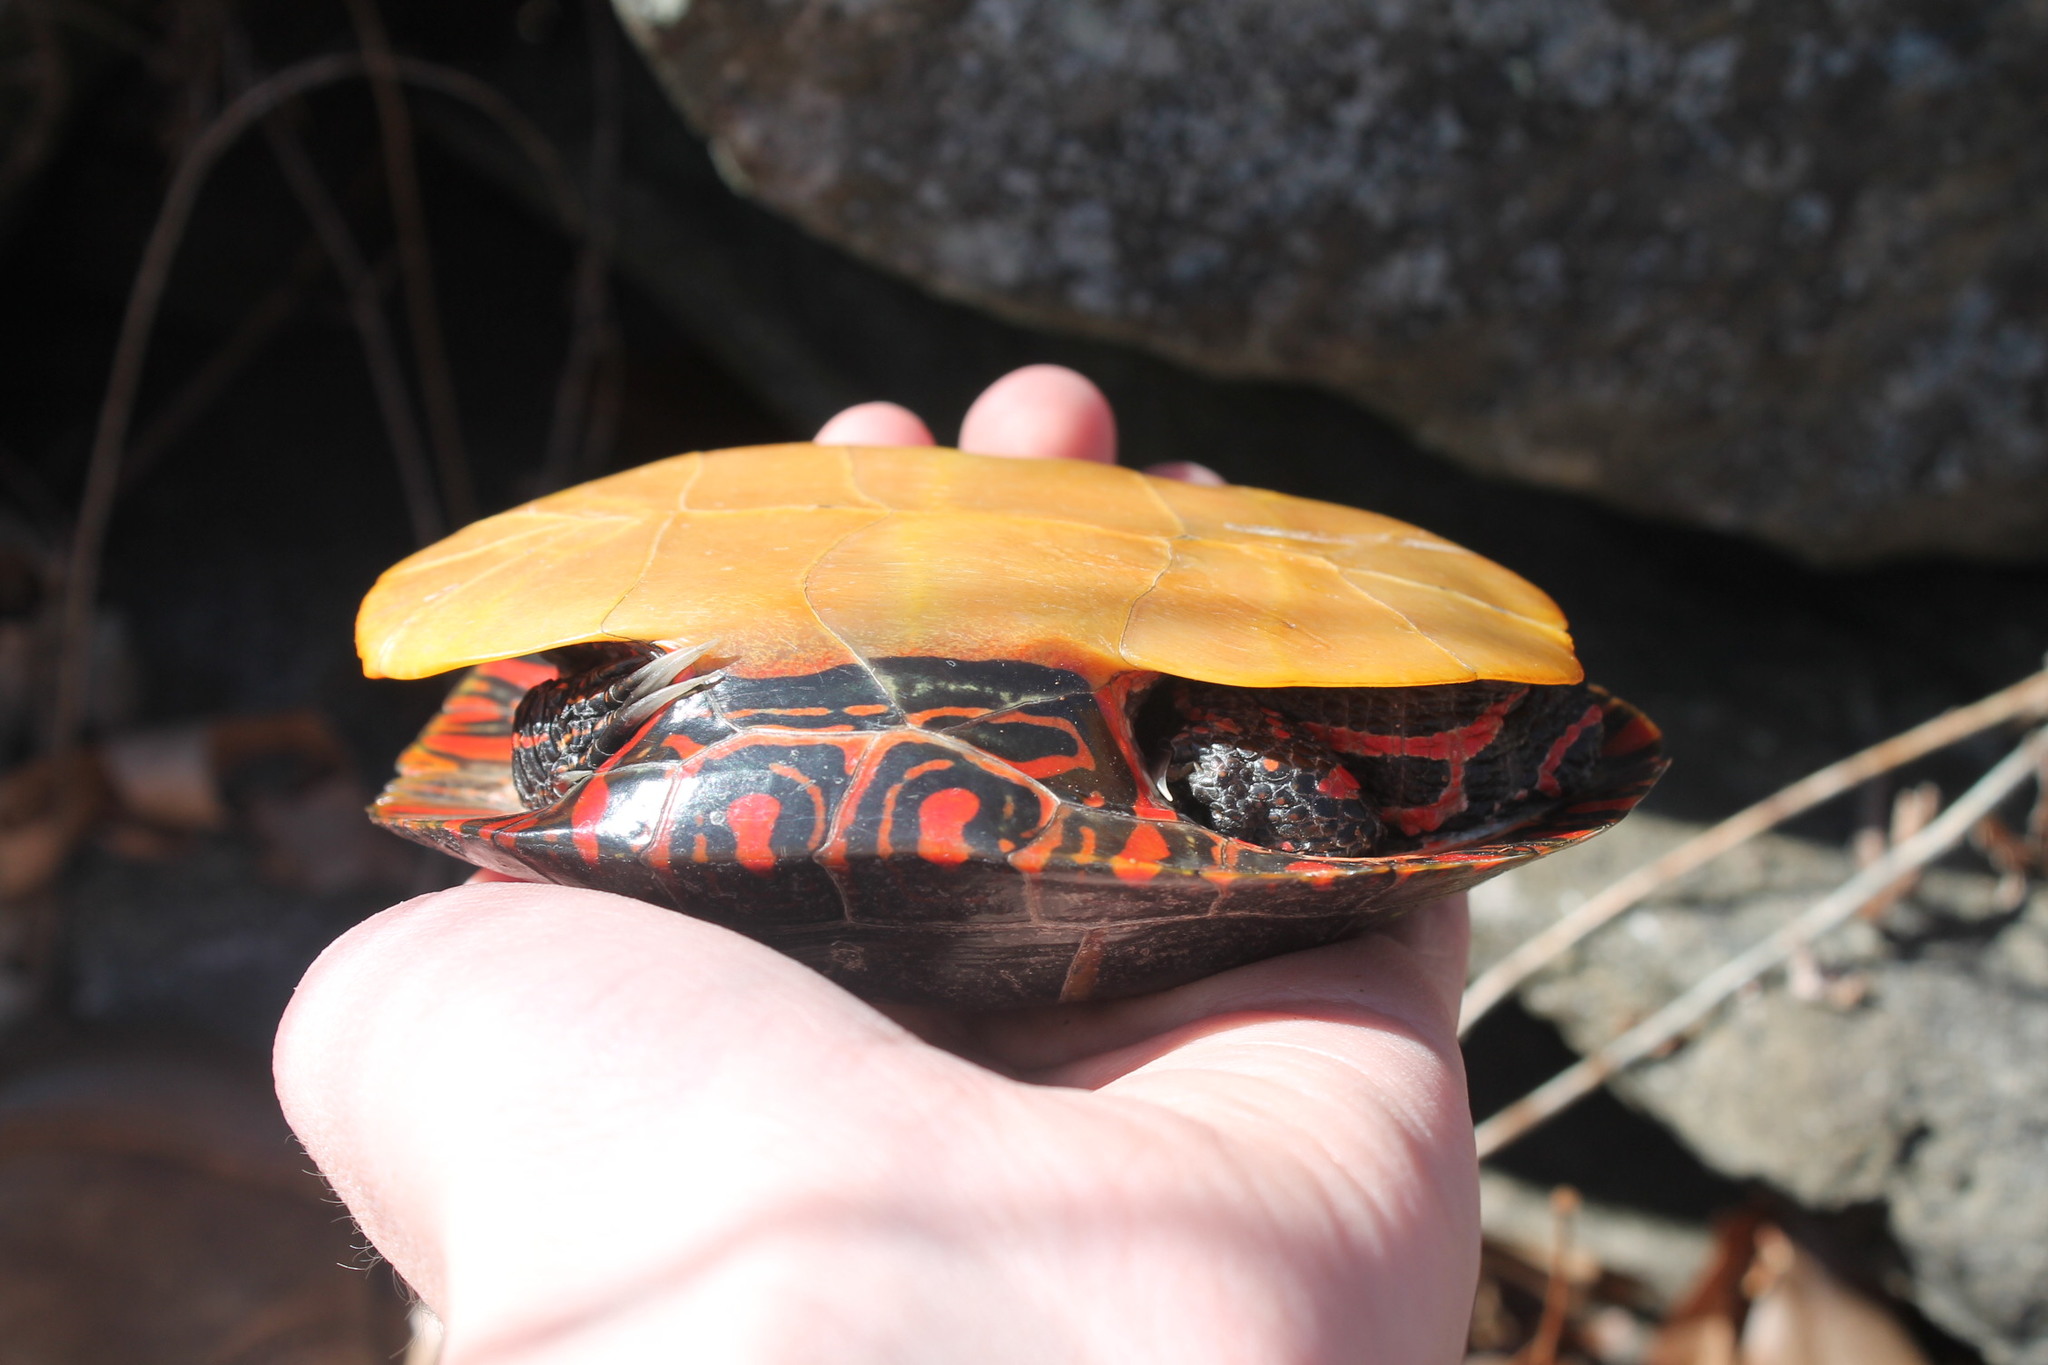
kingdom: Animalia
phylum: Chordata
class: Testudines
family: Emydidae
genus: Chrysemys
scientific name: Chrysemys picta
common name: Painted turtle
